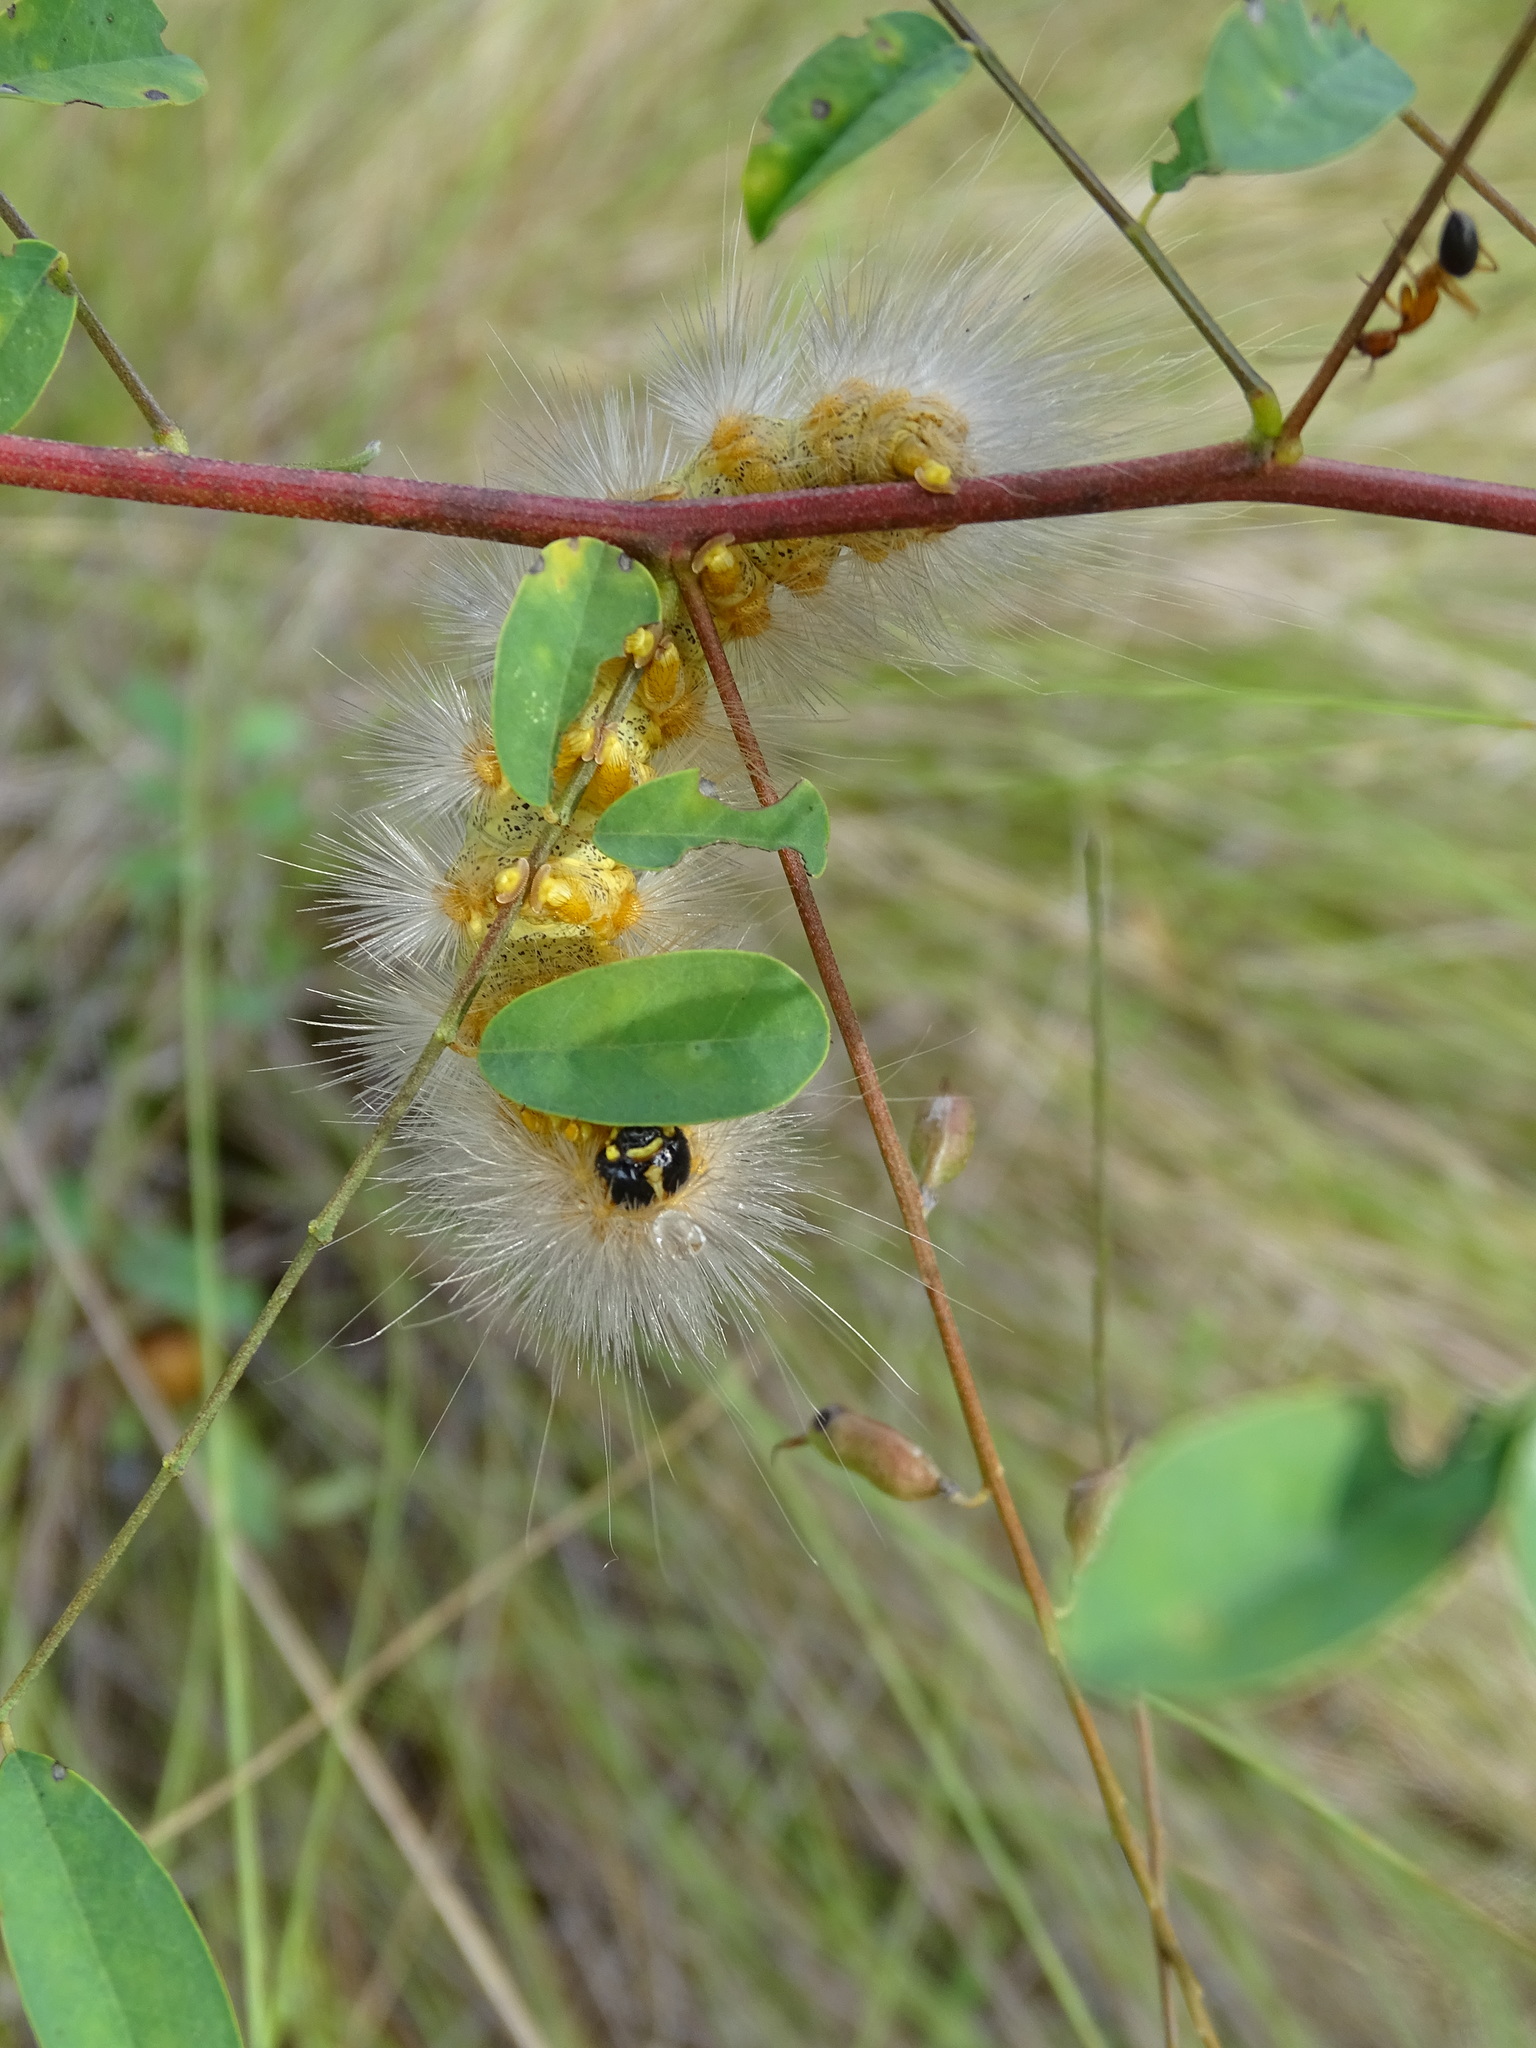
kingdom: Animalia
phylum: Arthropoda
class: Insecta
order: Lepidoptera
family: Erebidae
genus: Estigmene
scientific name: Estigmene acrea
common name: Salt marsh moth
